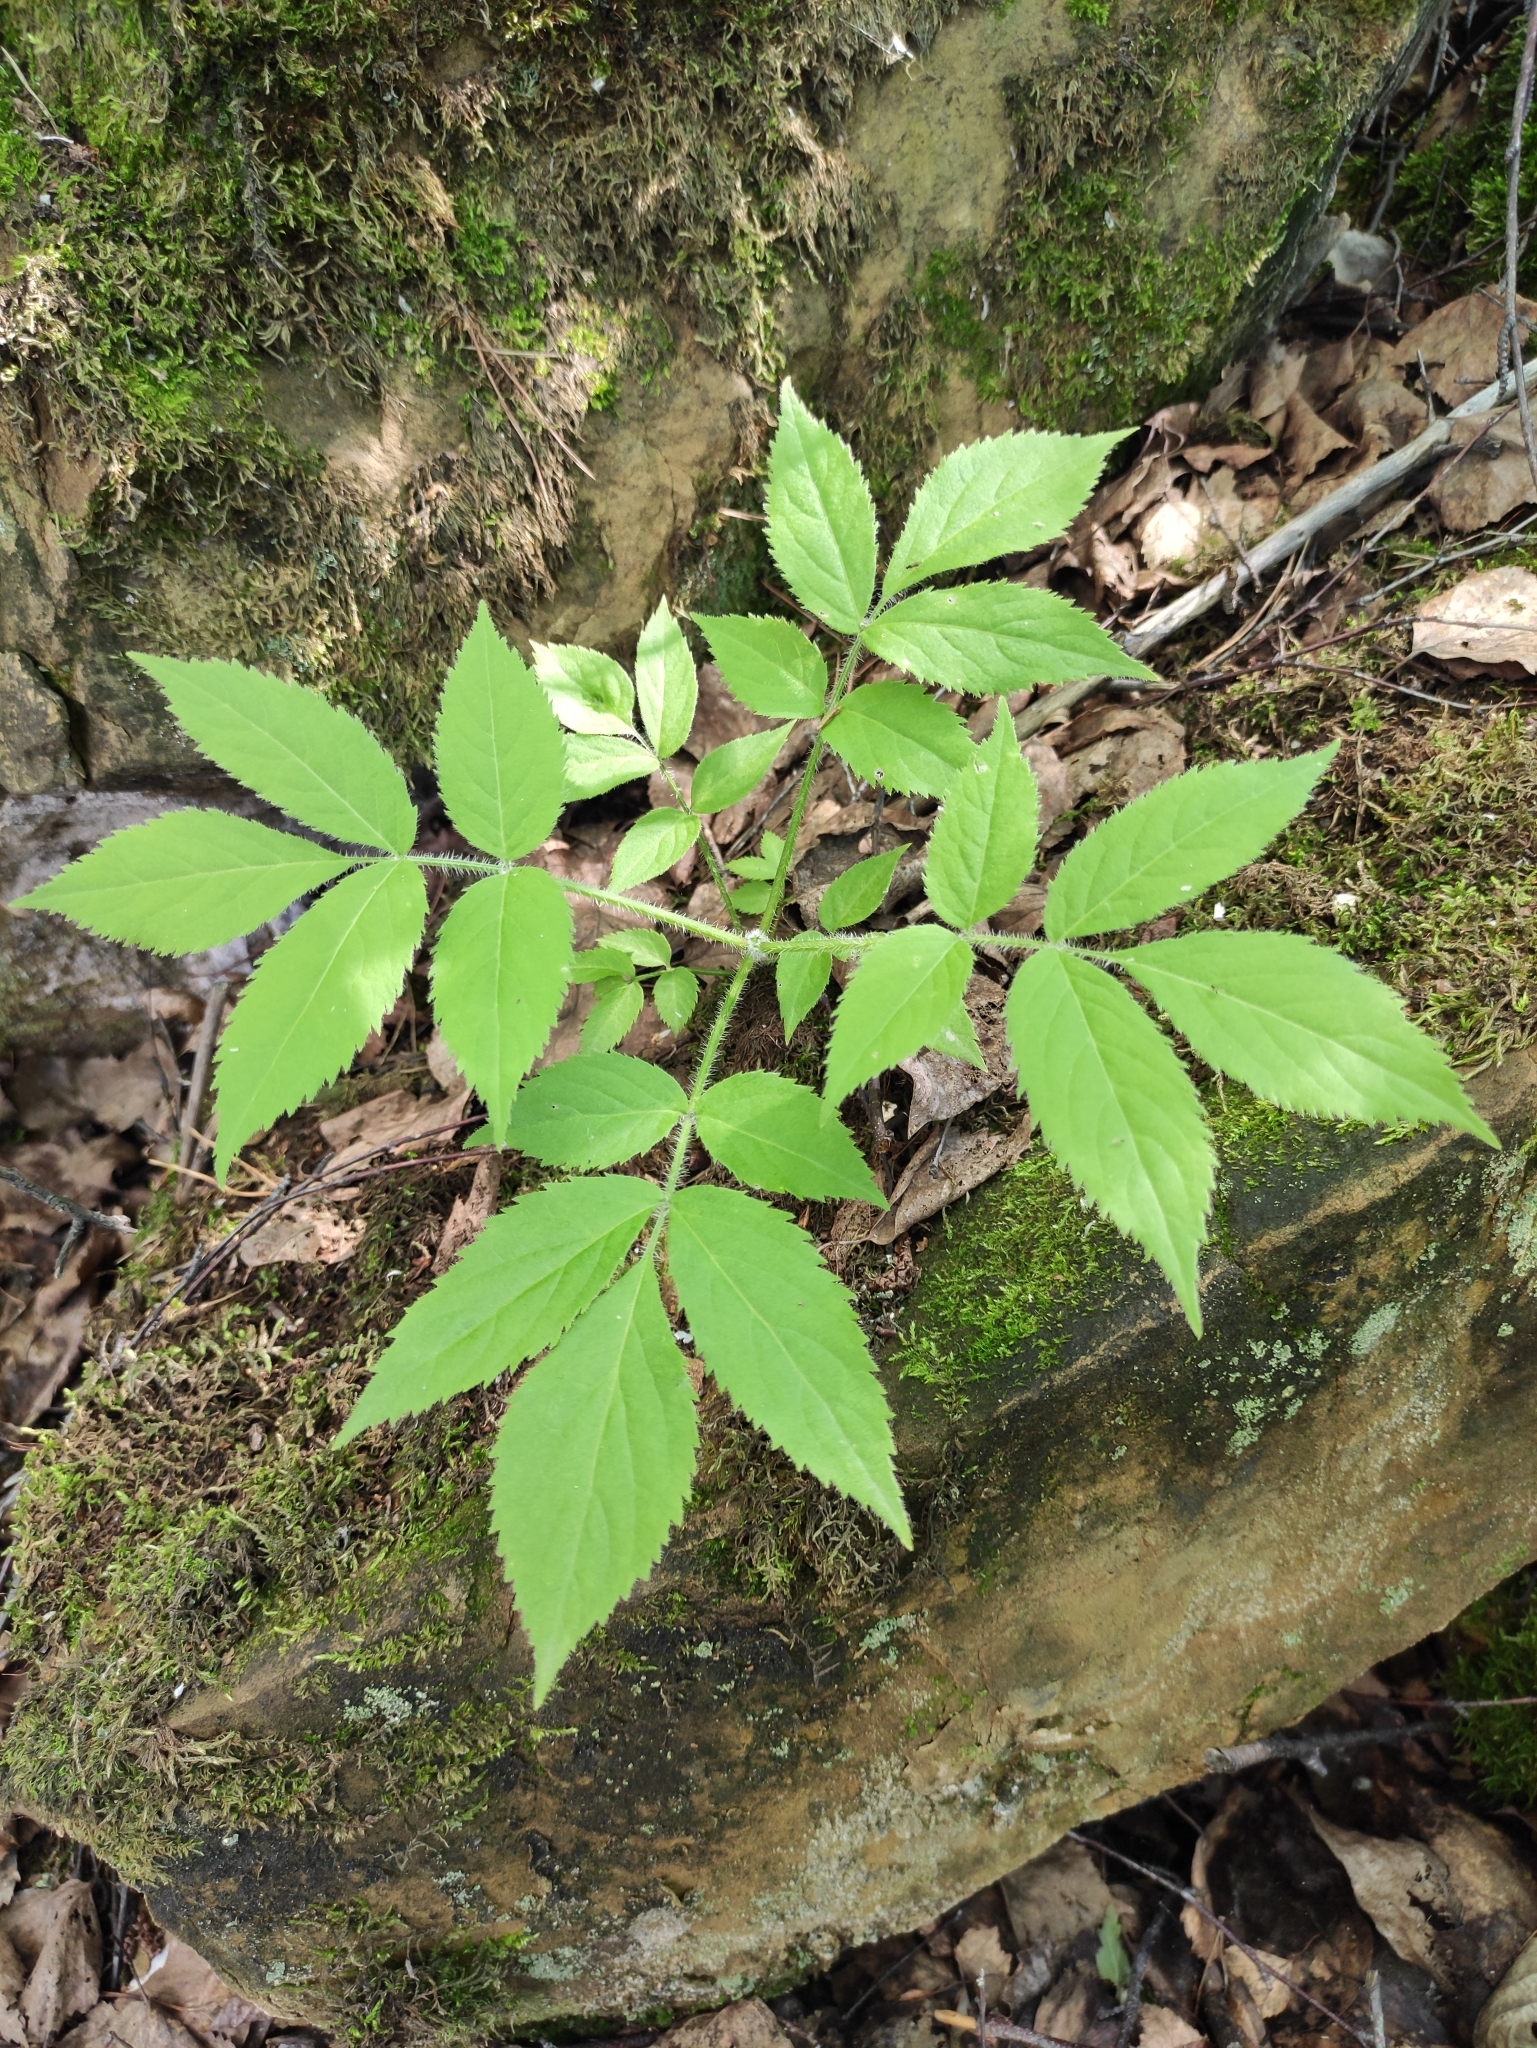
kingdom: Plantae
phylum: Tracheophyta
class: Magnoliopsida
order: Dipsacales
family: Viburnaceae
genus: Sambucus
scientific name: Sambucus sibirica
